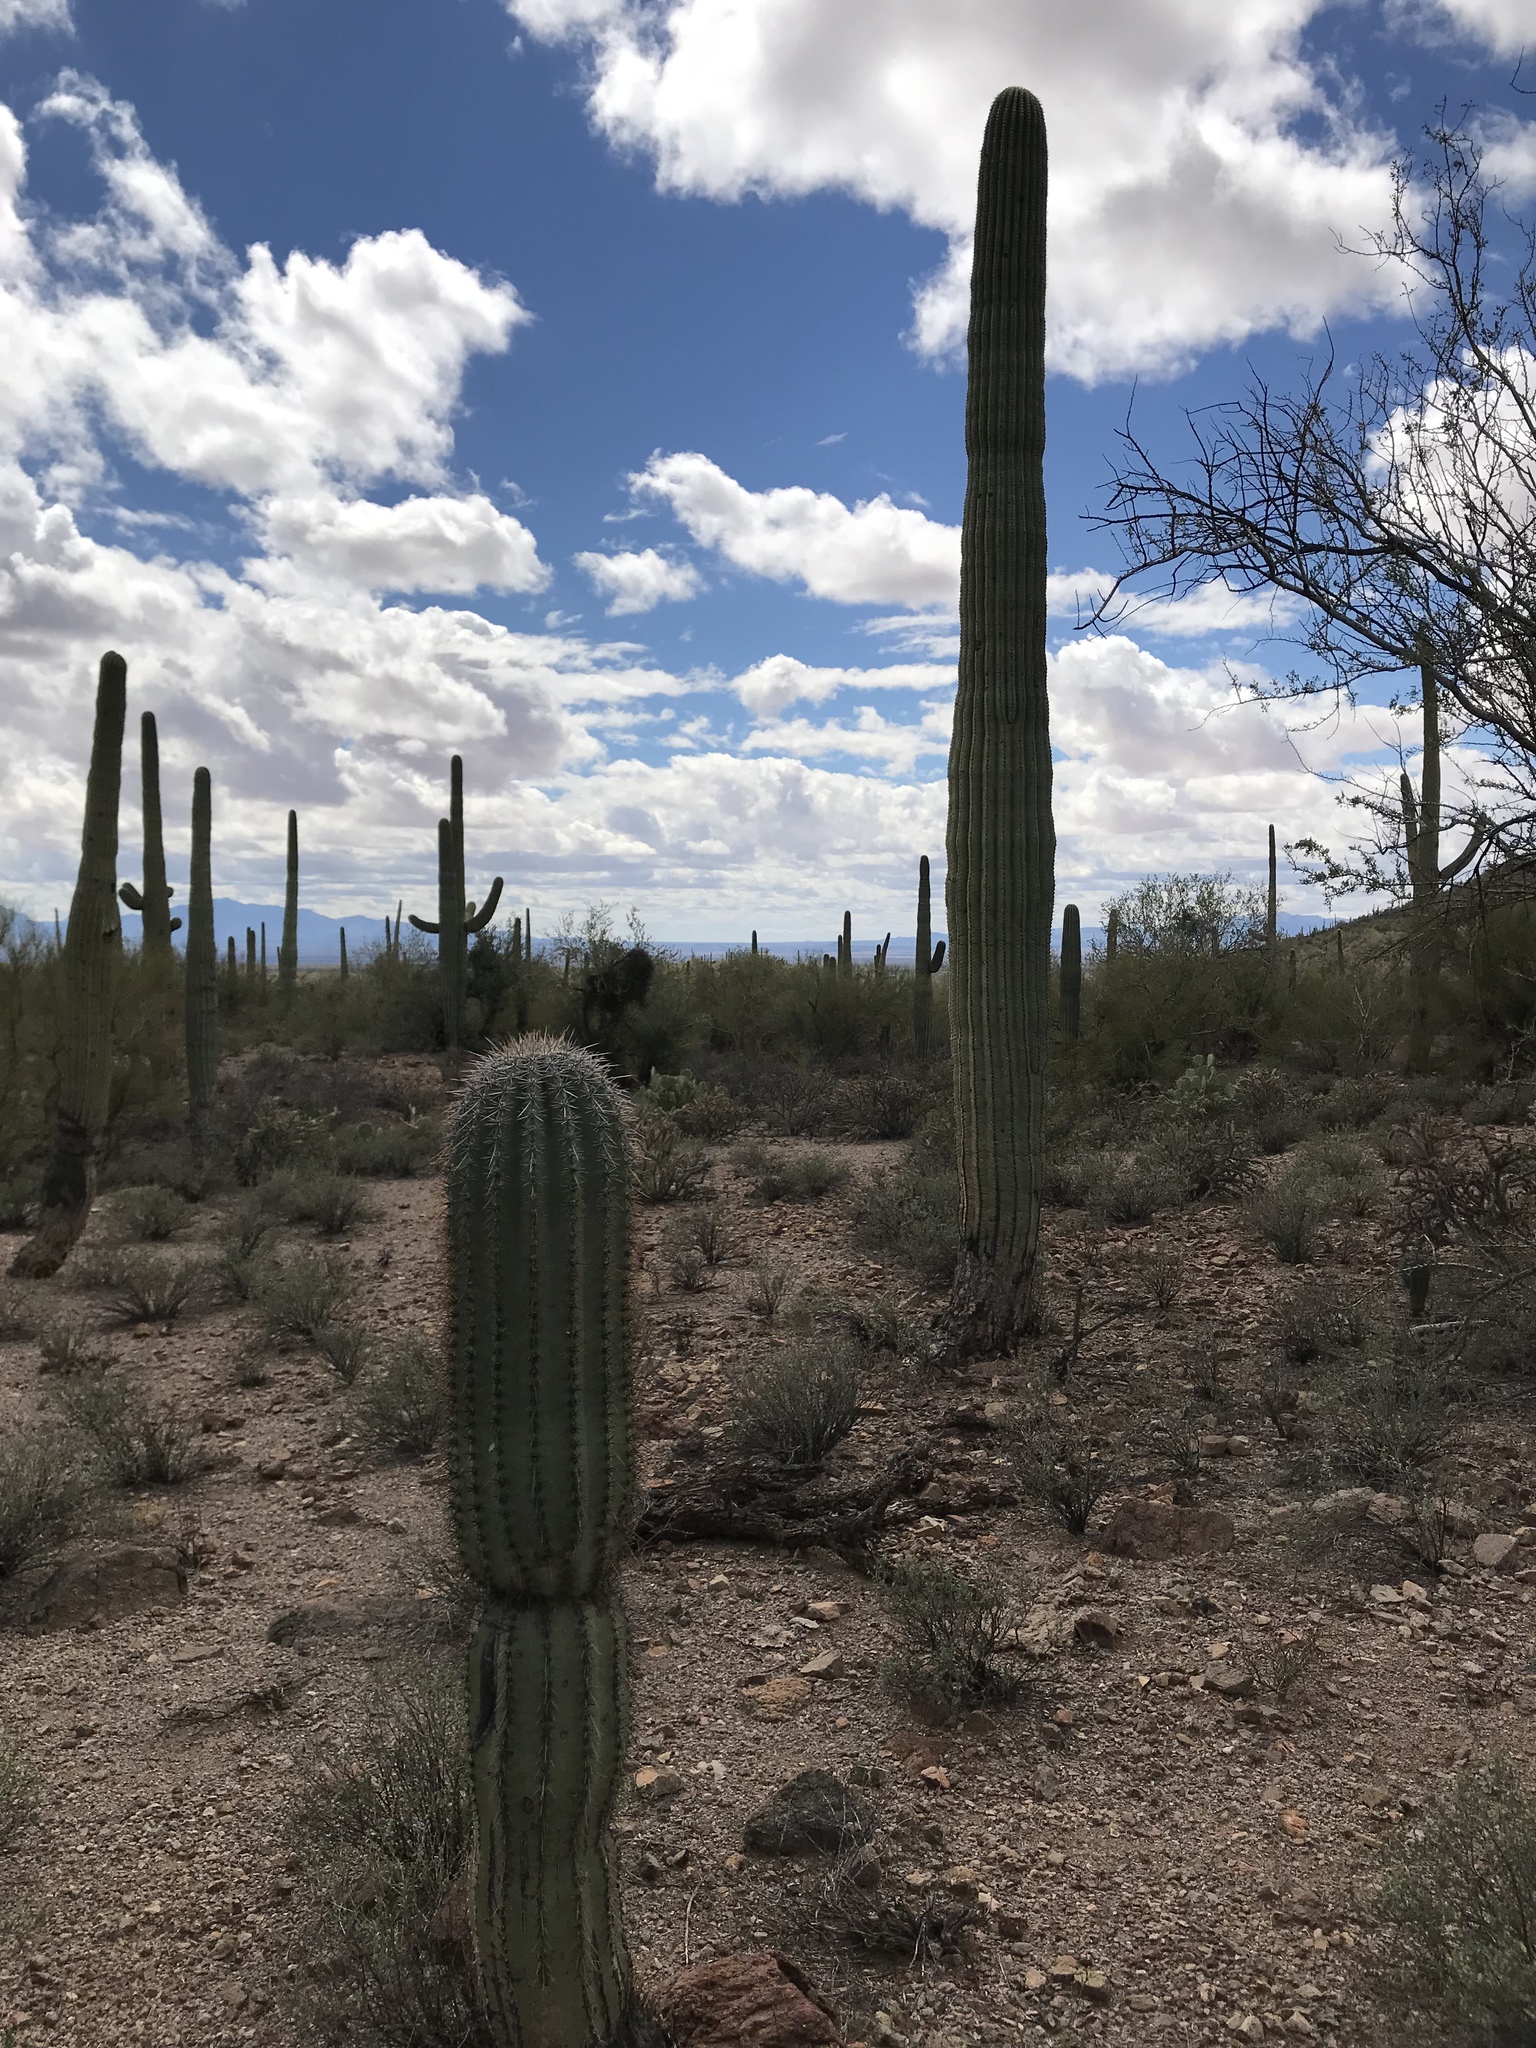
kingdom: Plantae
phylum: Tracheophyta
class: Magnoliopsida
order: Caryophyllales
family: Cactaceae
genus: Carnegiea
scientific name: Carnegiea gigantea
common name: Saguaro
